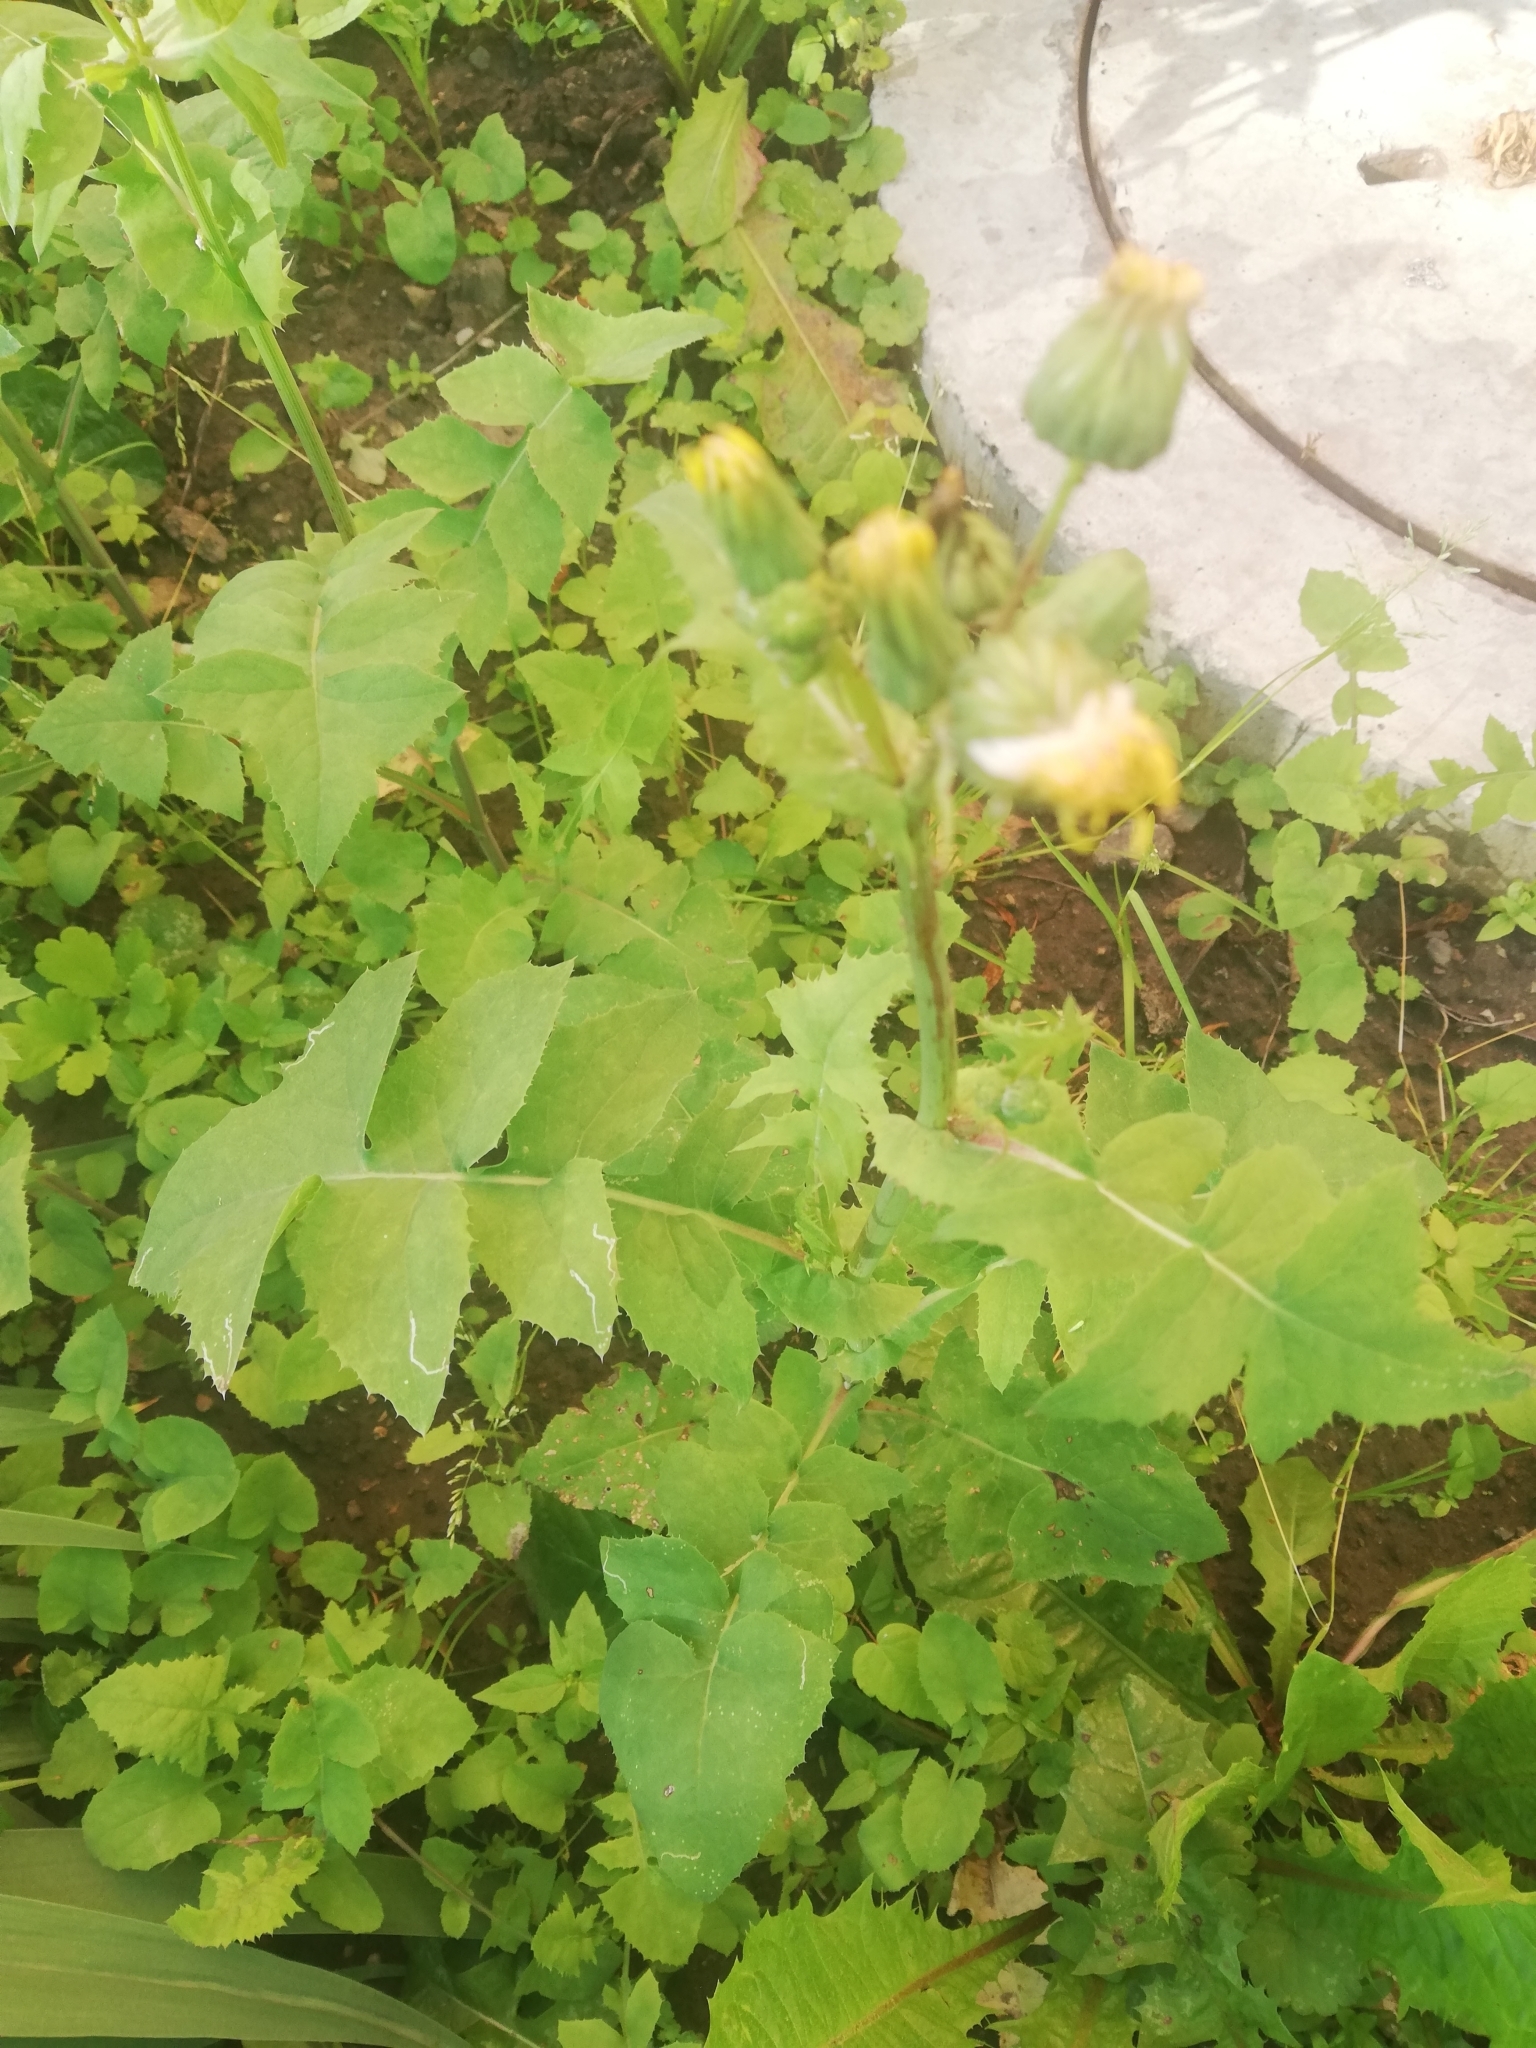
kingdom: Plantae
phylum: Tracheophyta
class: Magnoliopsida
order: Asterales
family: Asteraceae
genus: Sonchus
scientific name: Sonchus oleraceus
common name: Common sowthistle
